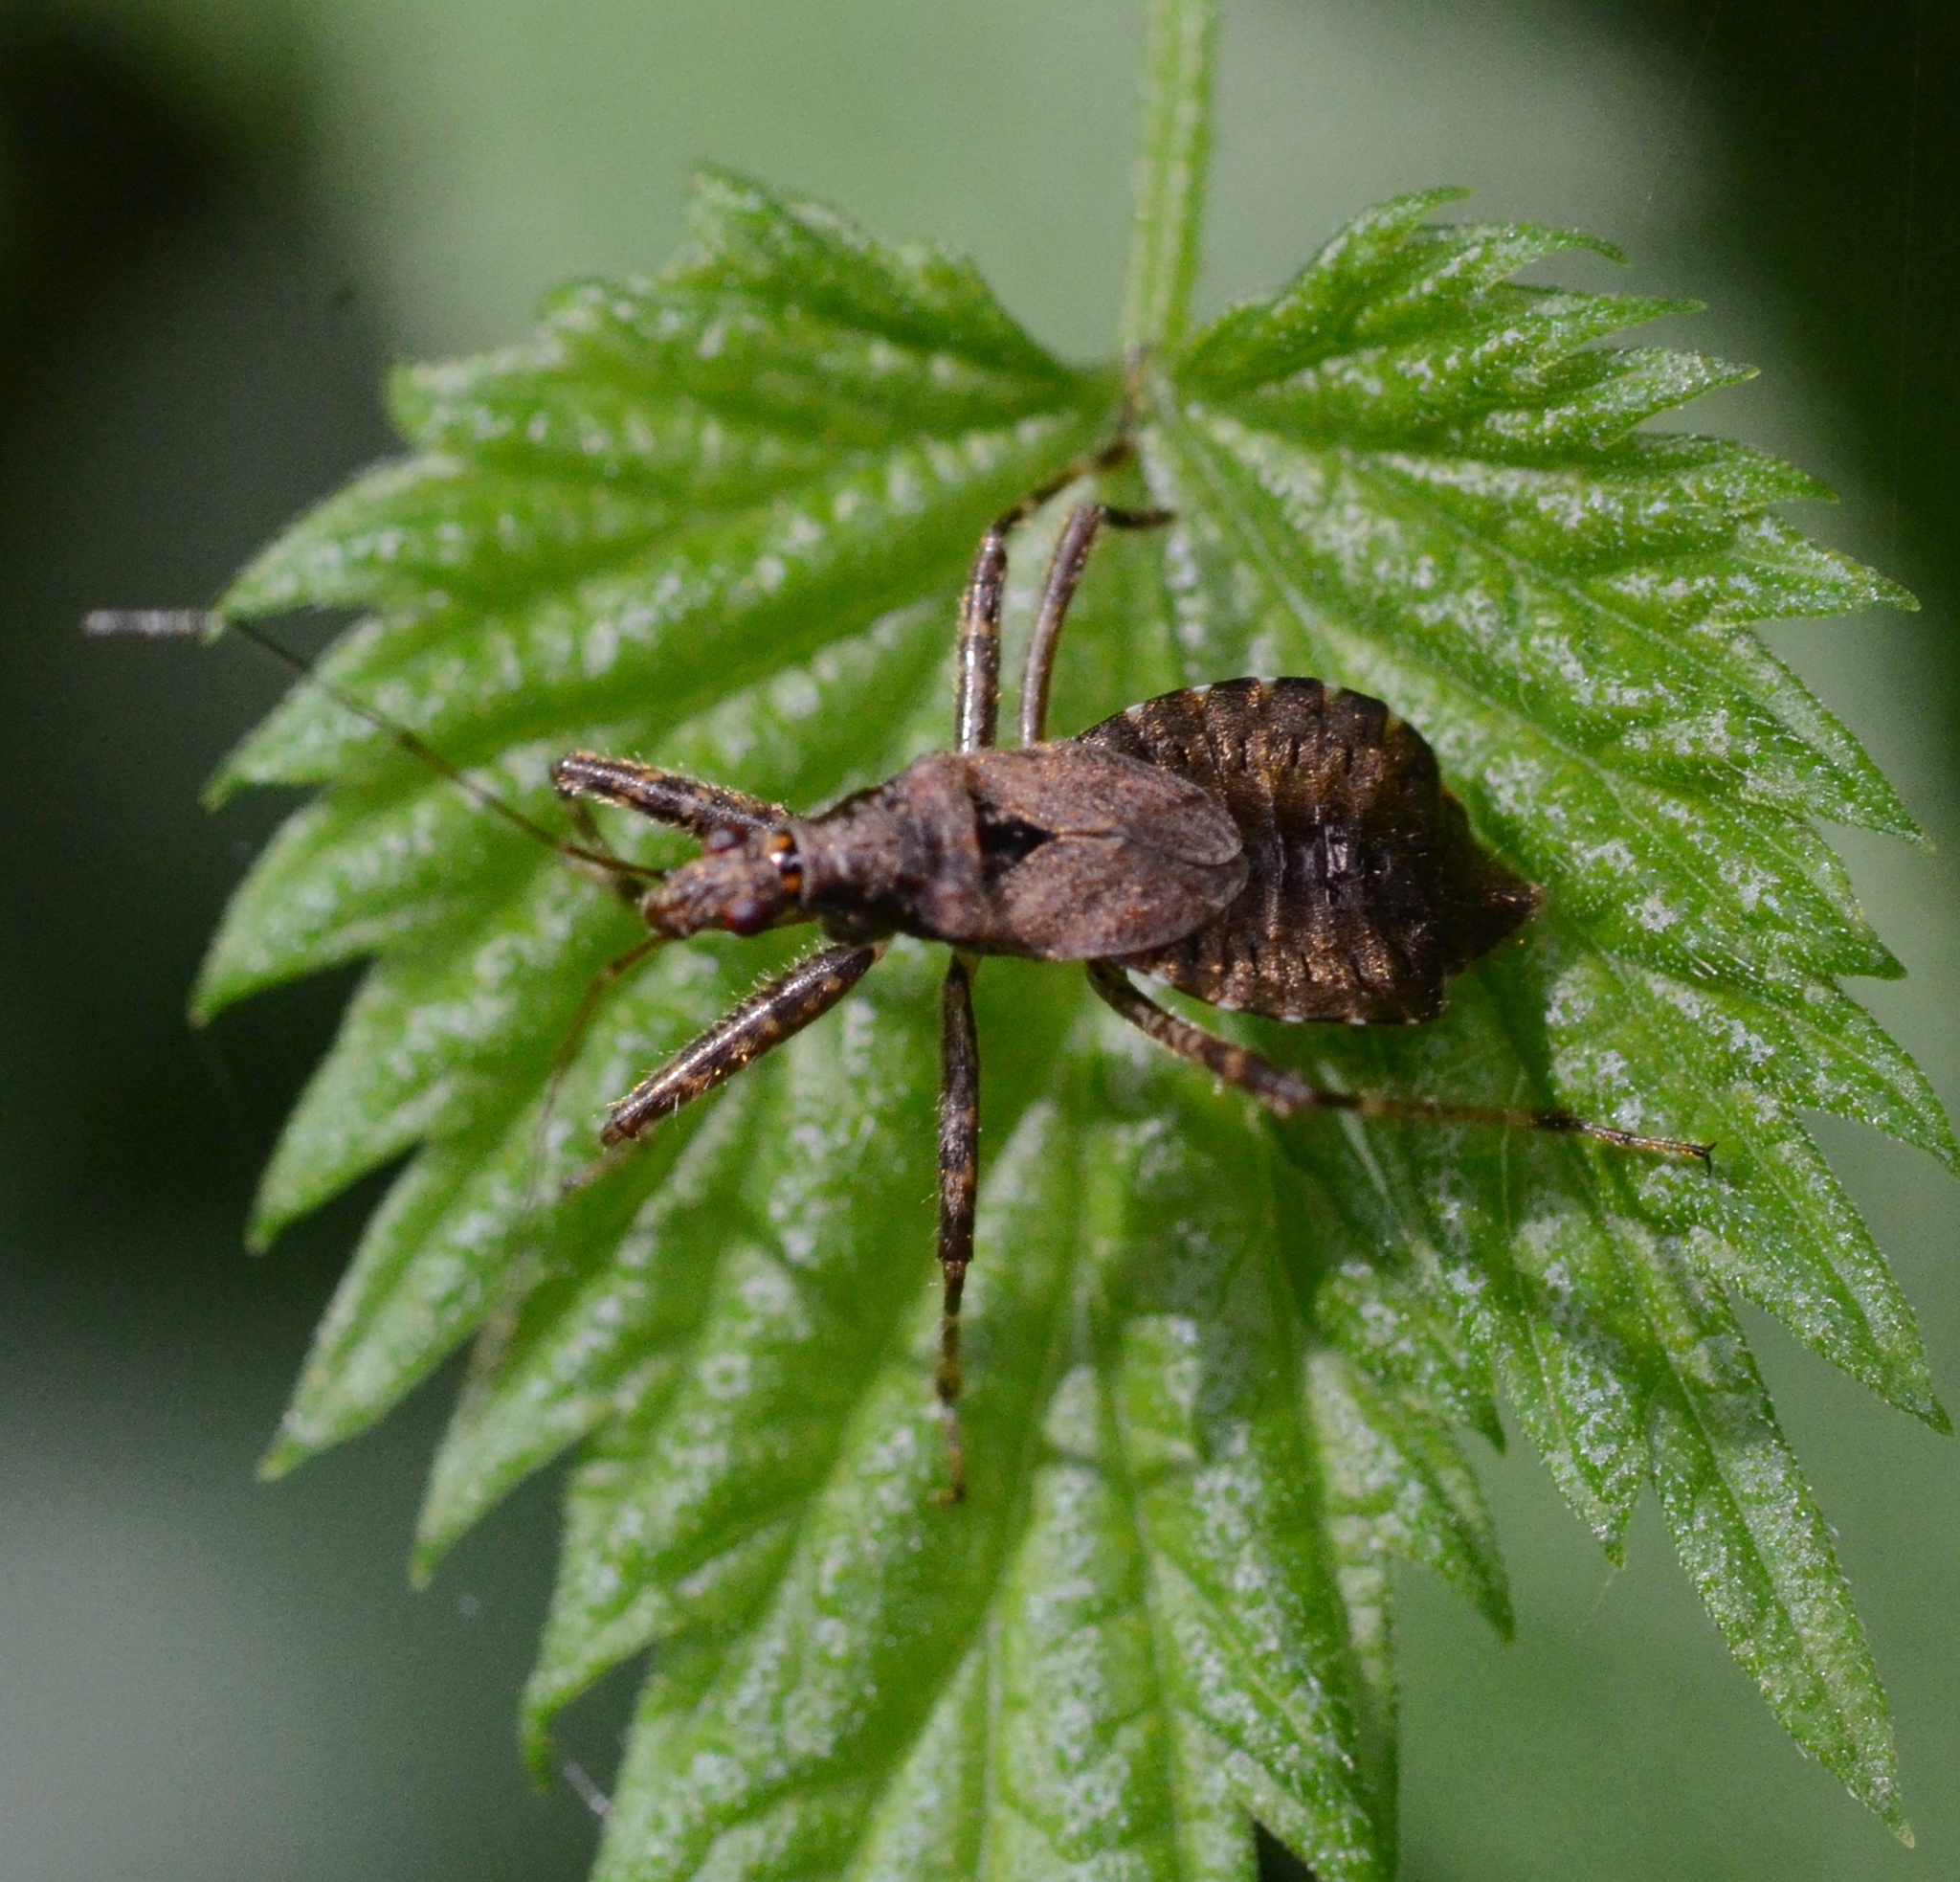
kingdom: Animalia
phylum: Arthropoda
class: Insecta
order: Hemiptera
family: Nabidae
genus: Himacerus
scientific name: Himacerus apterus
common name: Tree damsel bug
